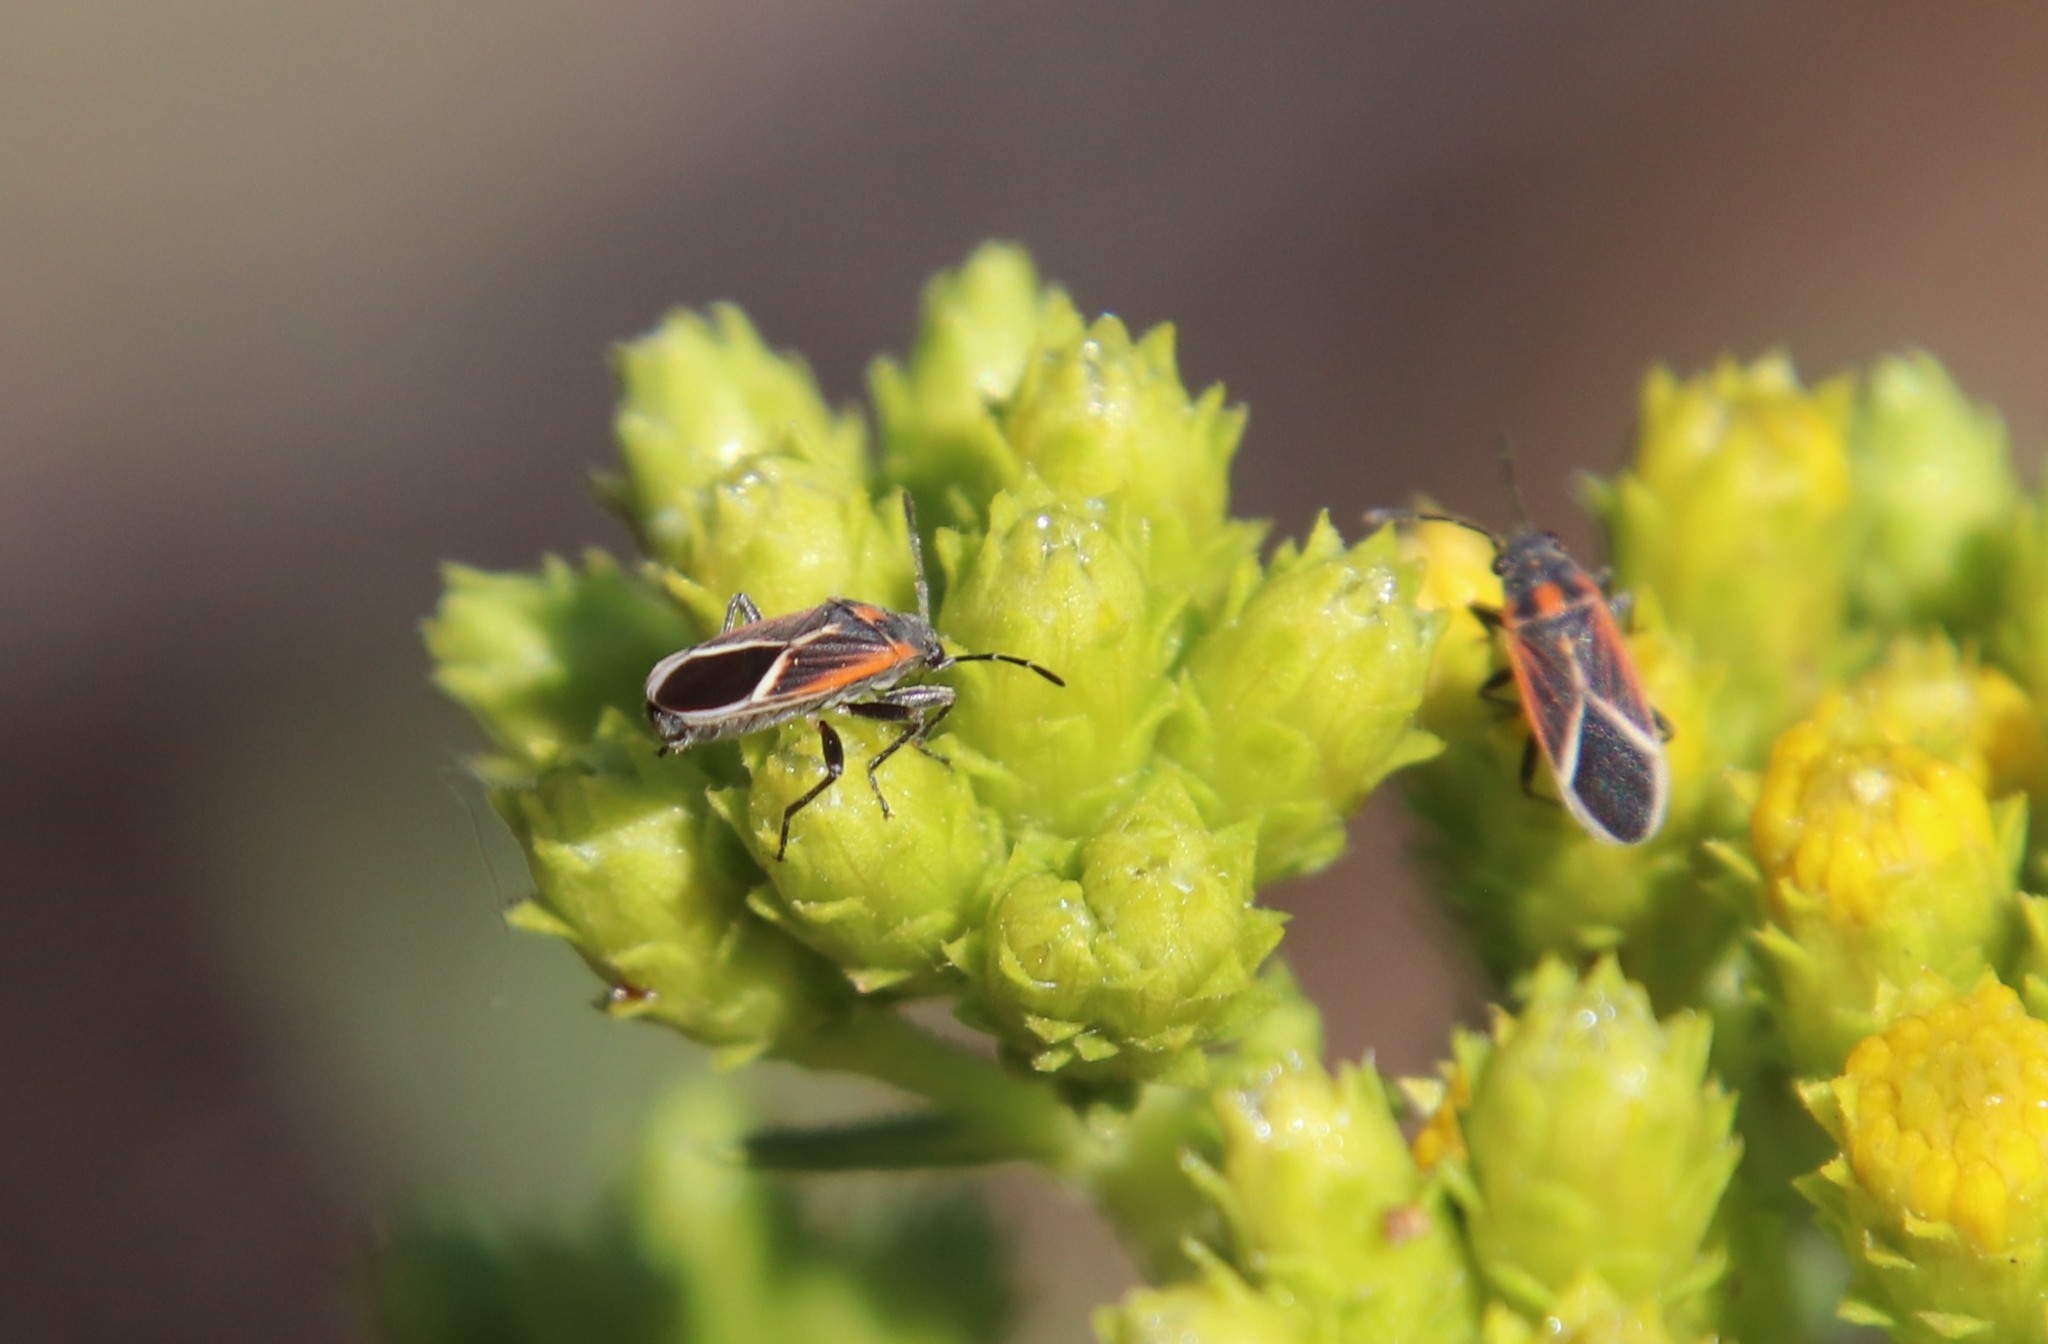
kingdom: Animalia
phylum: Arthropoda
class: Insecta
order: Hemiptera
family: Lygaeidae
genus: Ochrimnus
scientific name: Ochrimnus carnosulus
